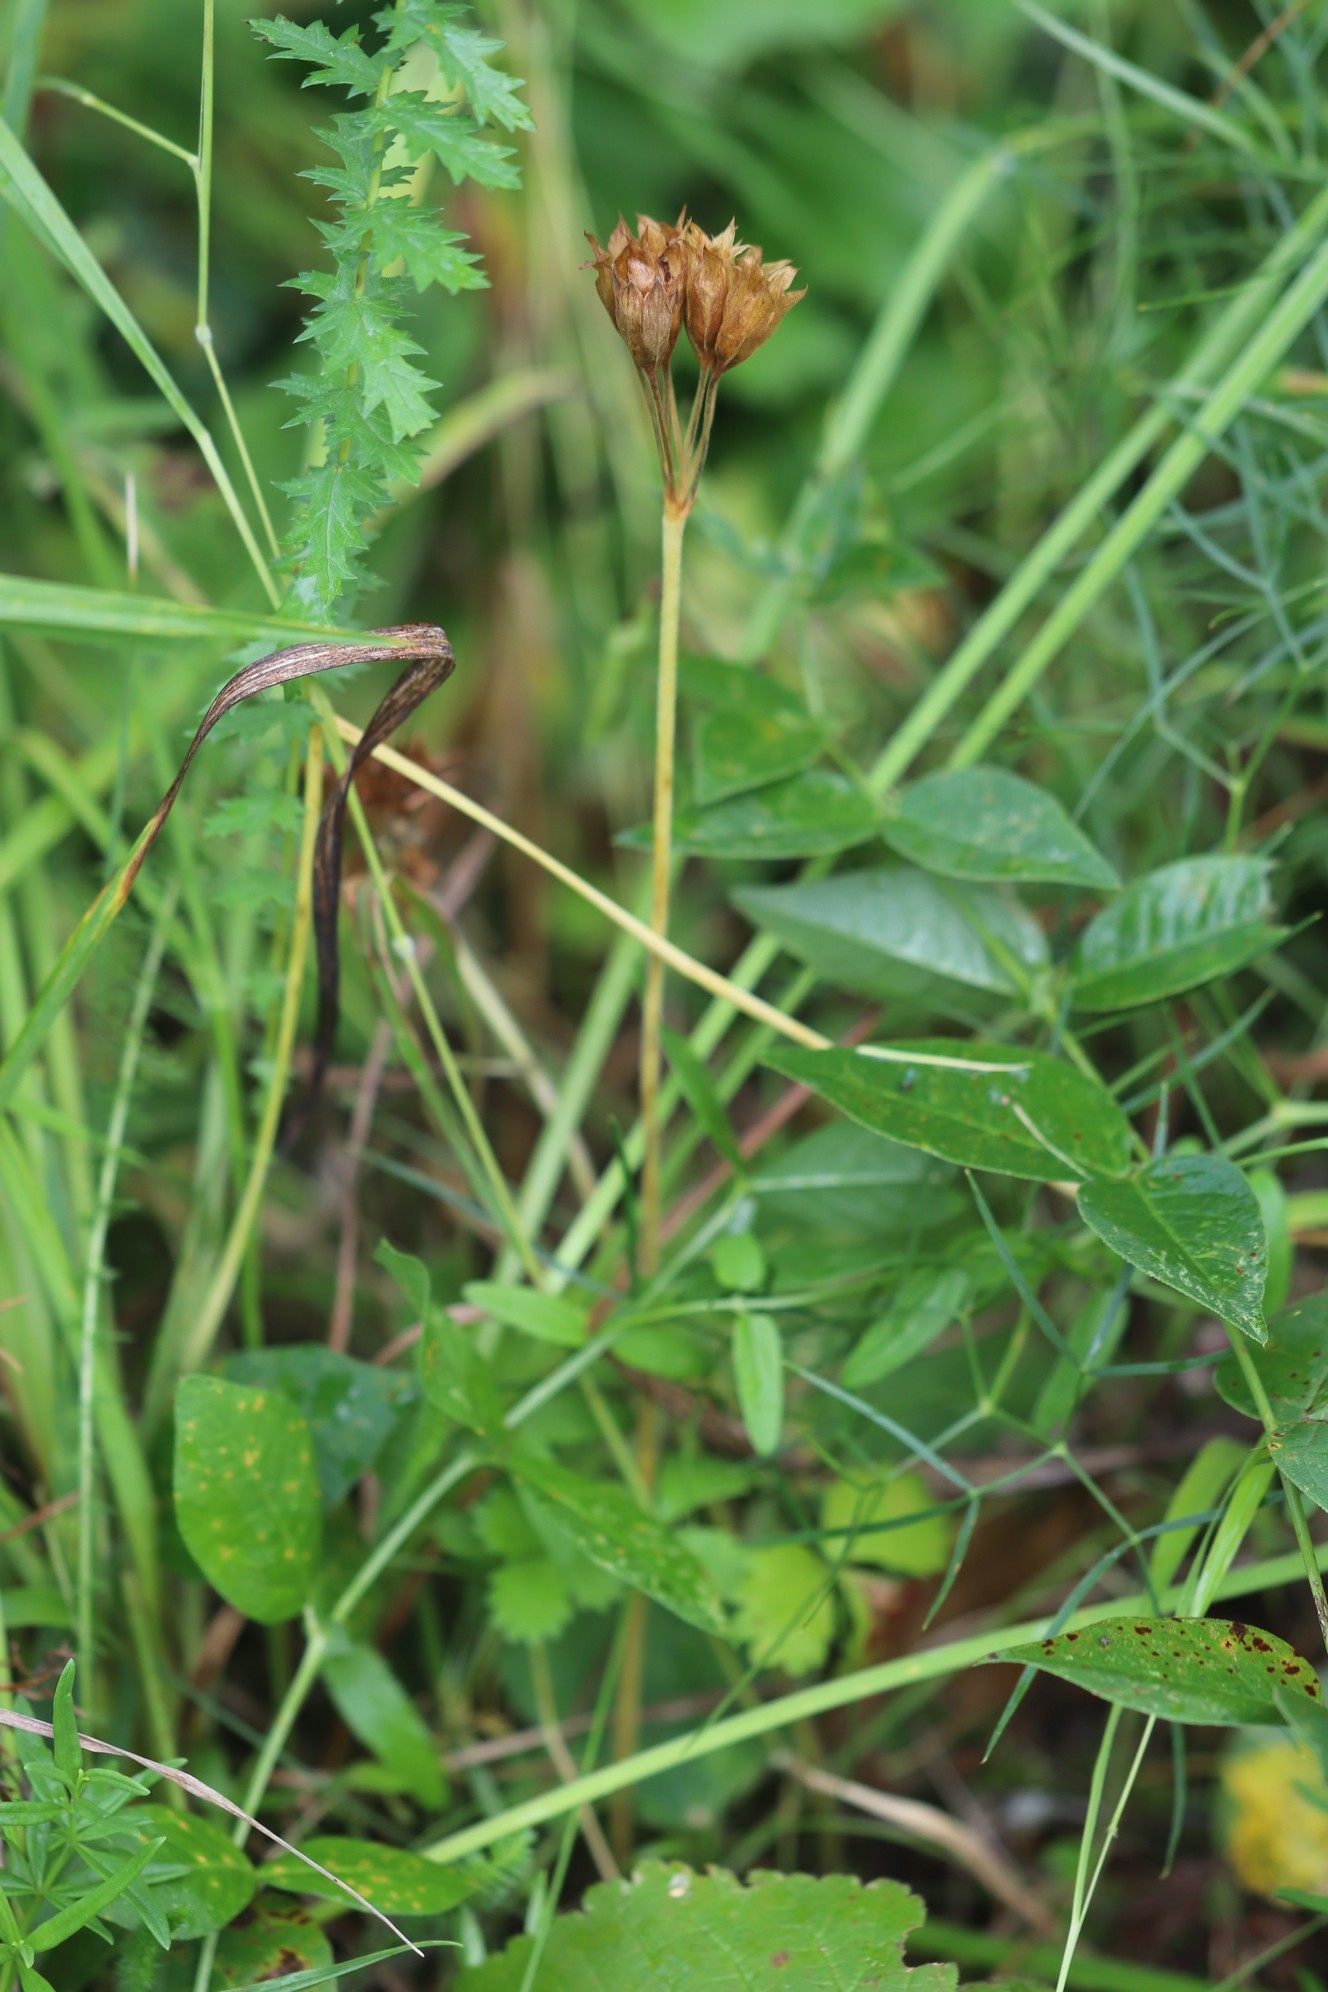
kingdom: Plantae
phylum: Tracheophyta
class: Magnoliopsida
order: Ericales
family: Primulaceae
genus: Primula
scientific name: Primula veris
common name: Cowslip
